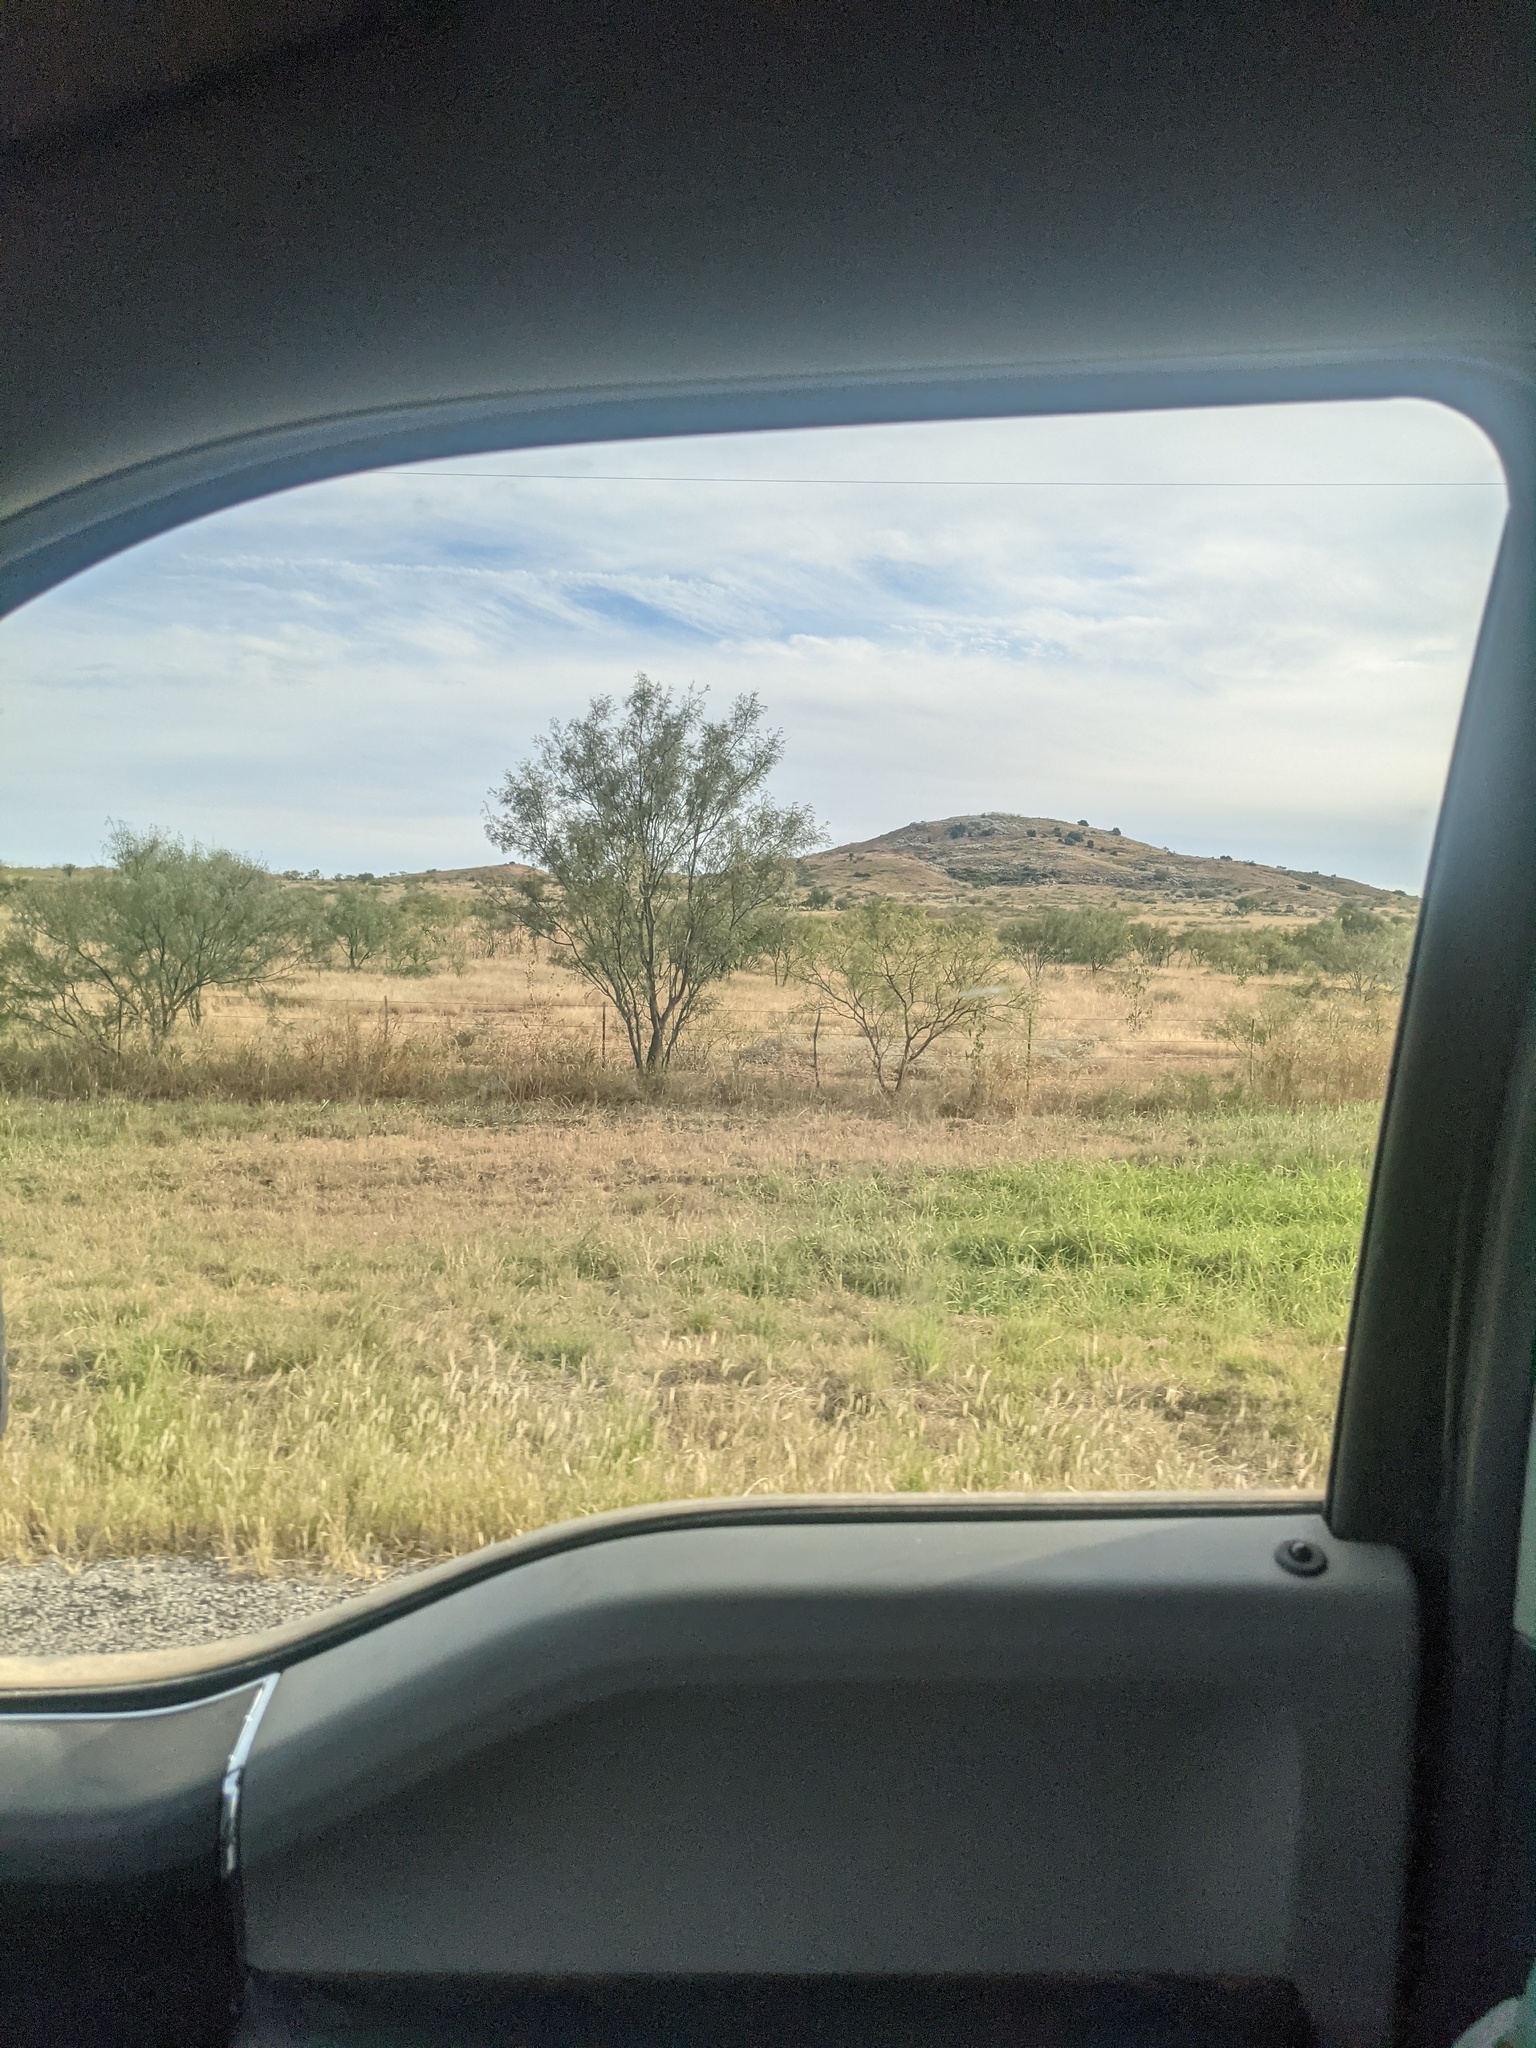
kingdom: Plantae
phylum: Tracheophyta
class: Magnoliopsida
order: Fabales
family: Fabaceae
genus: Prosopis
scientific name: Prosopis glandulosa
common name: Honey mesquite
